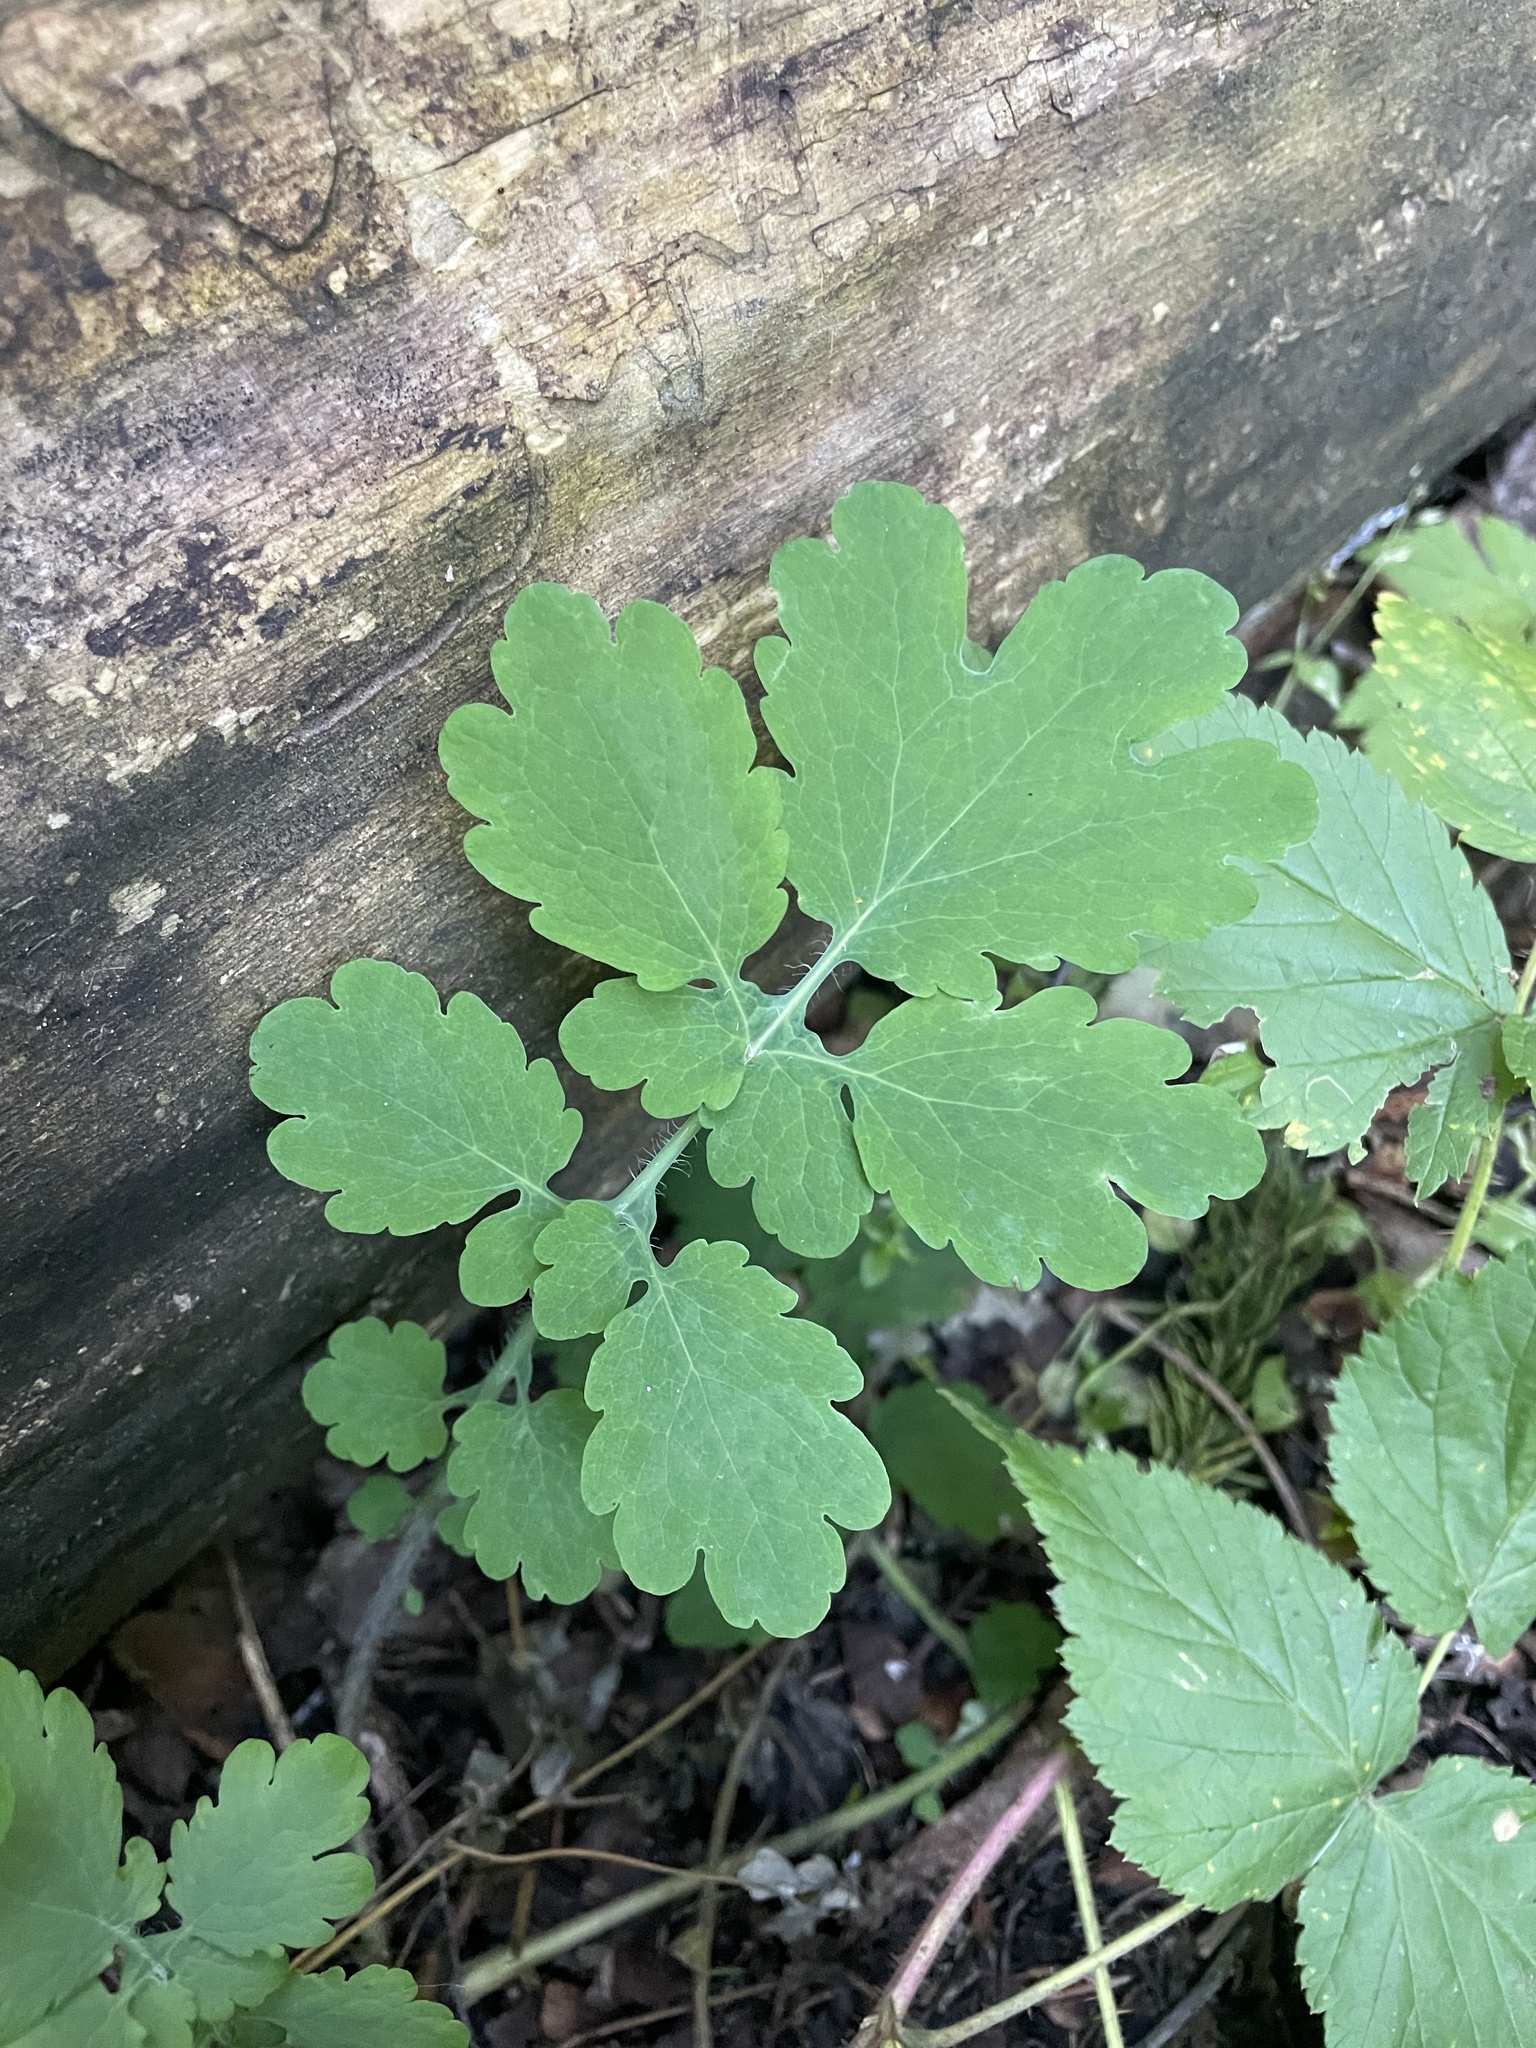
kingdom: Plantae
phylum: Tracheophyta
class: Magnoliopsida
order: Ranunculales
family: Papaveraceae
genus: Chelidonium
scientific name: Chelidonium majus
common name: Greater celandine
